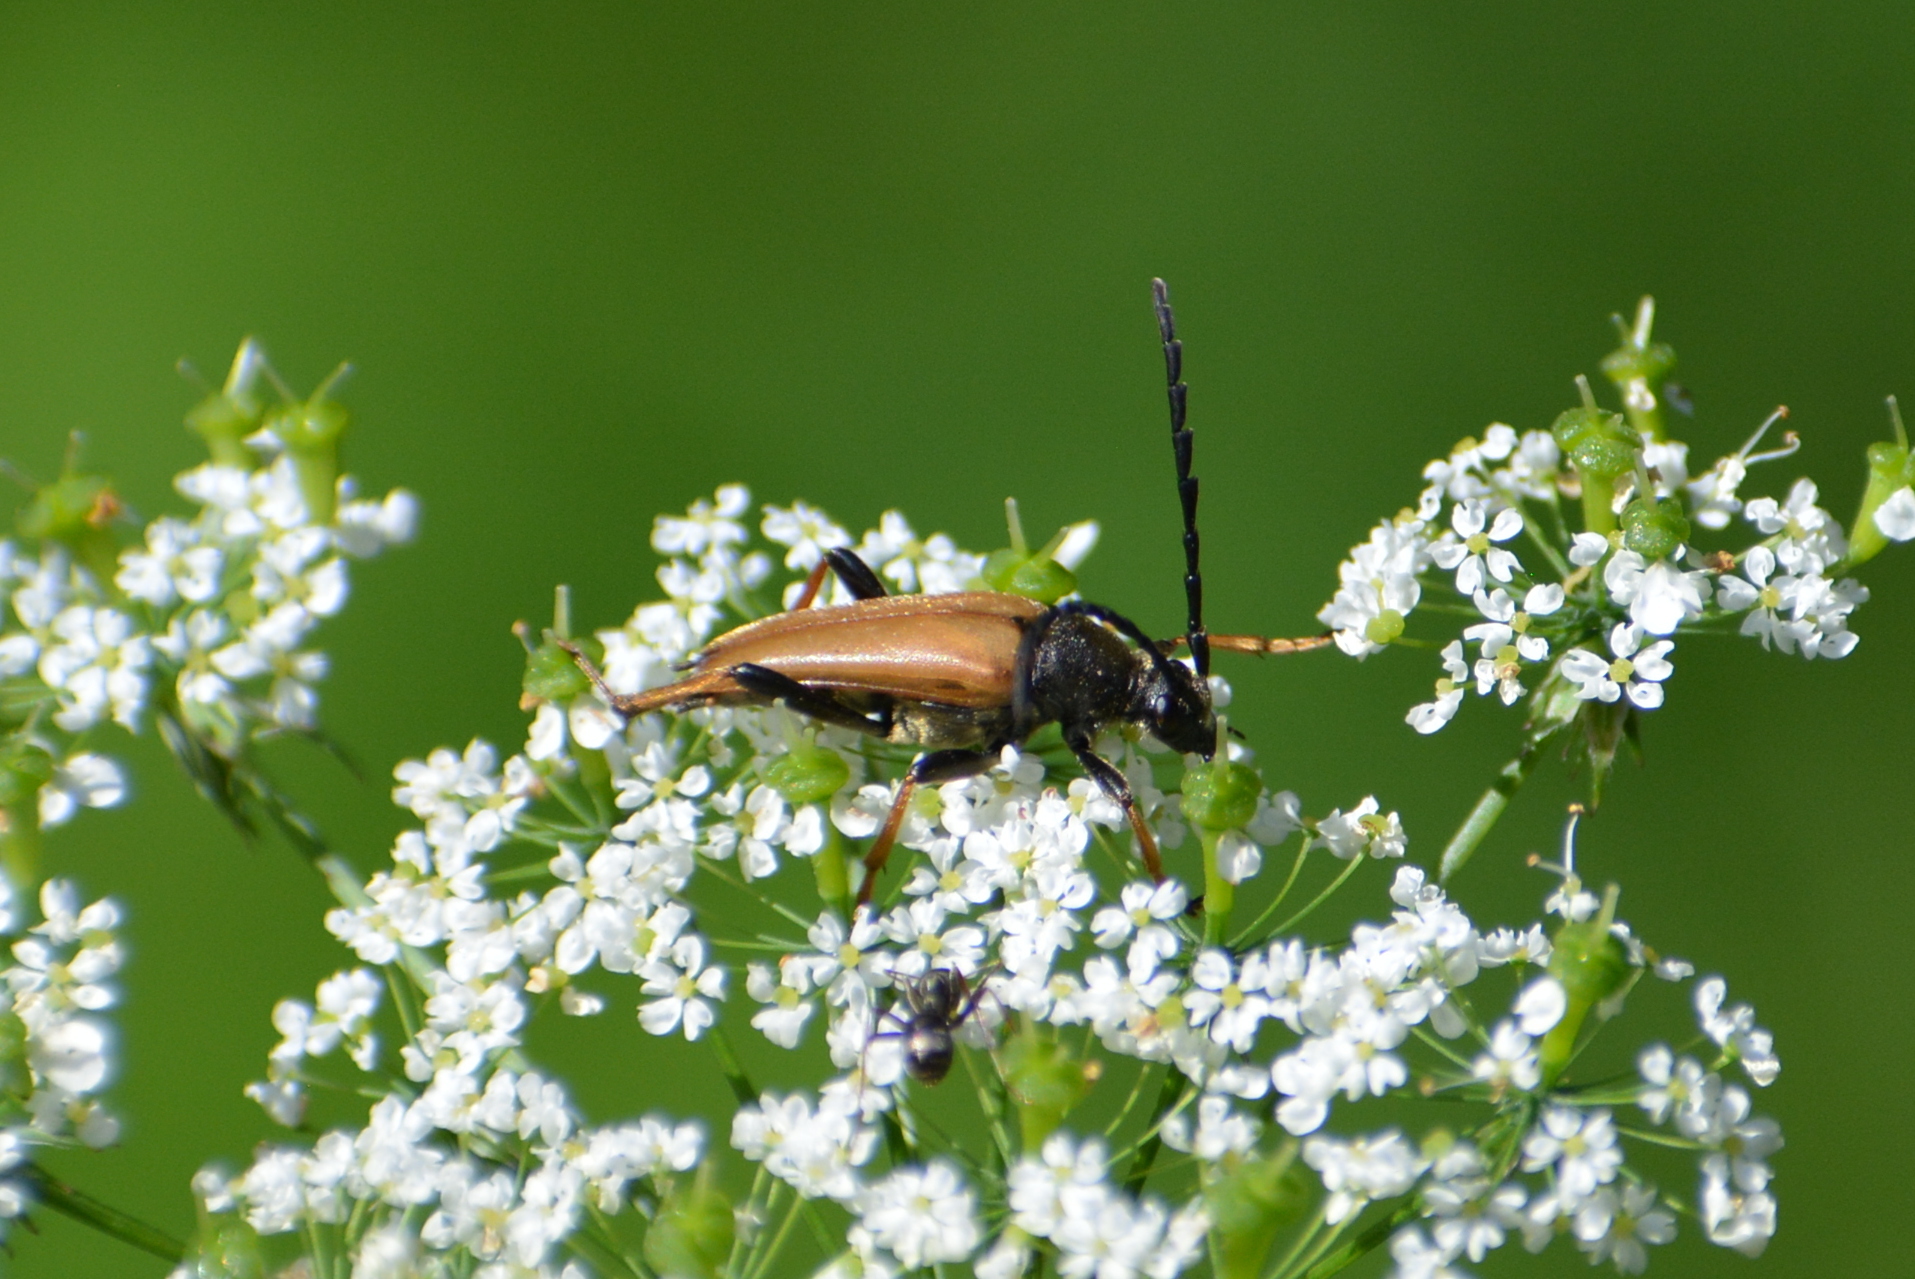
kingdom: Animalia
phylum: Arthropoda
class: Insecta
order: Coleoptera
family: Cerambycidae
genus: Stictoleptura
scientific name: Stictoleptura rubra
